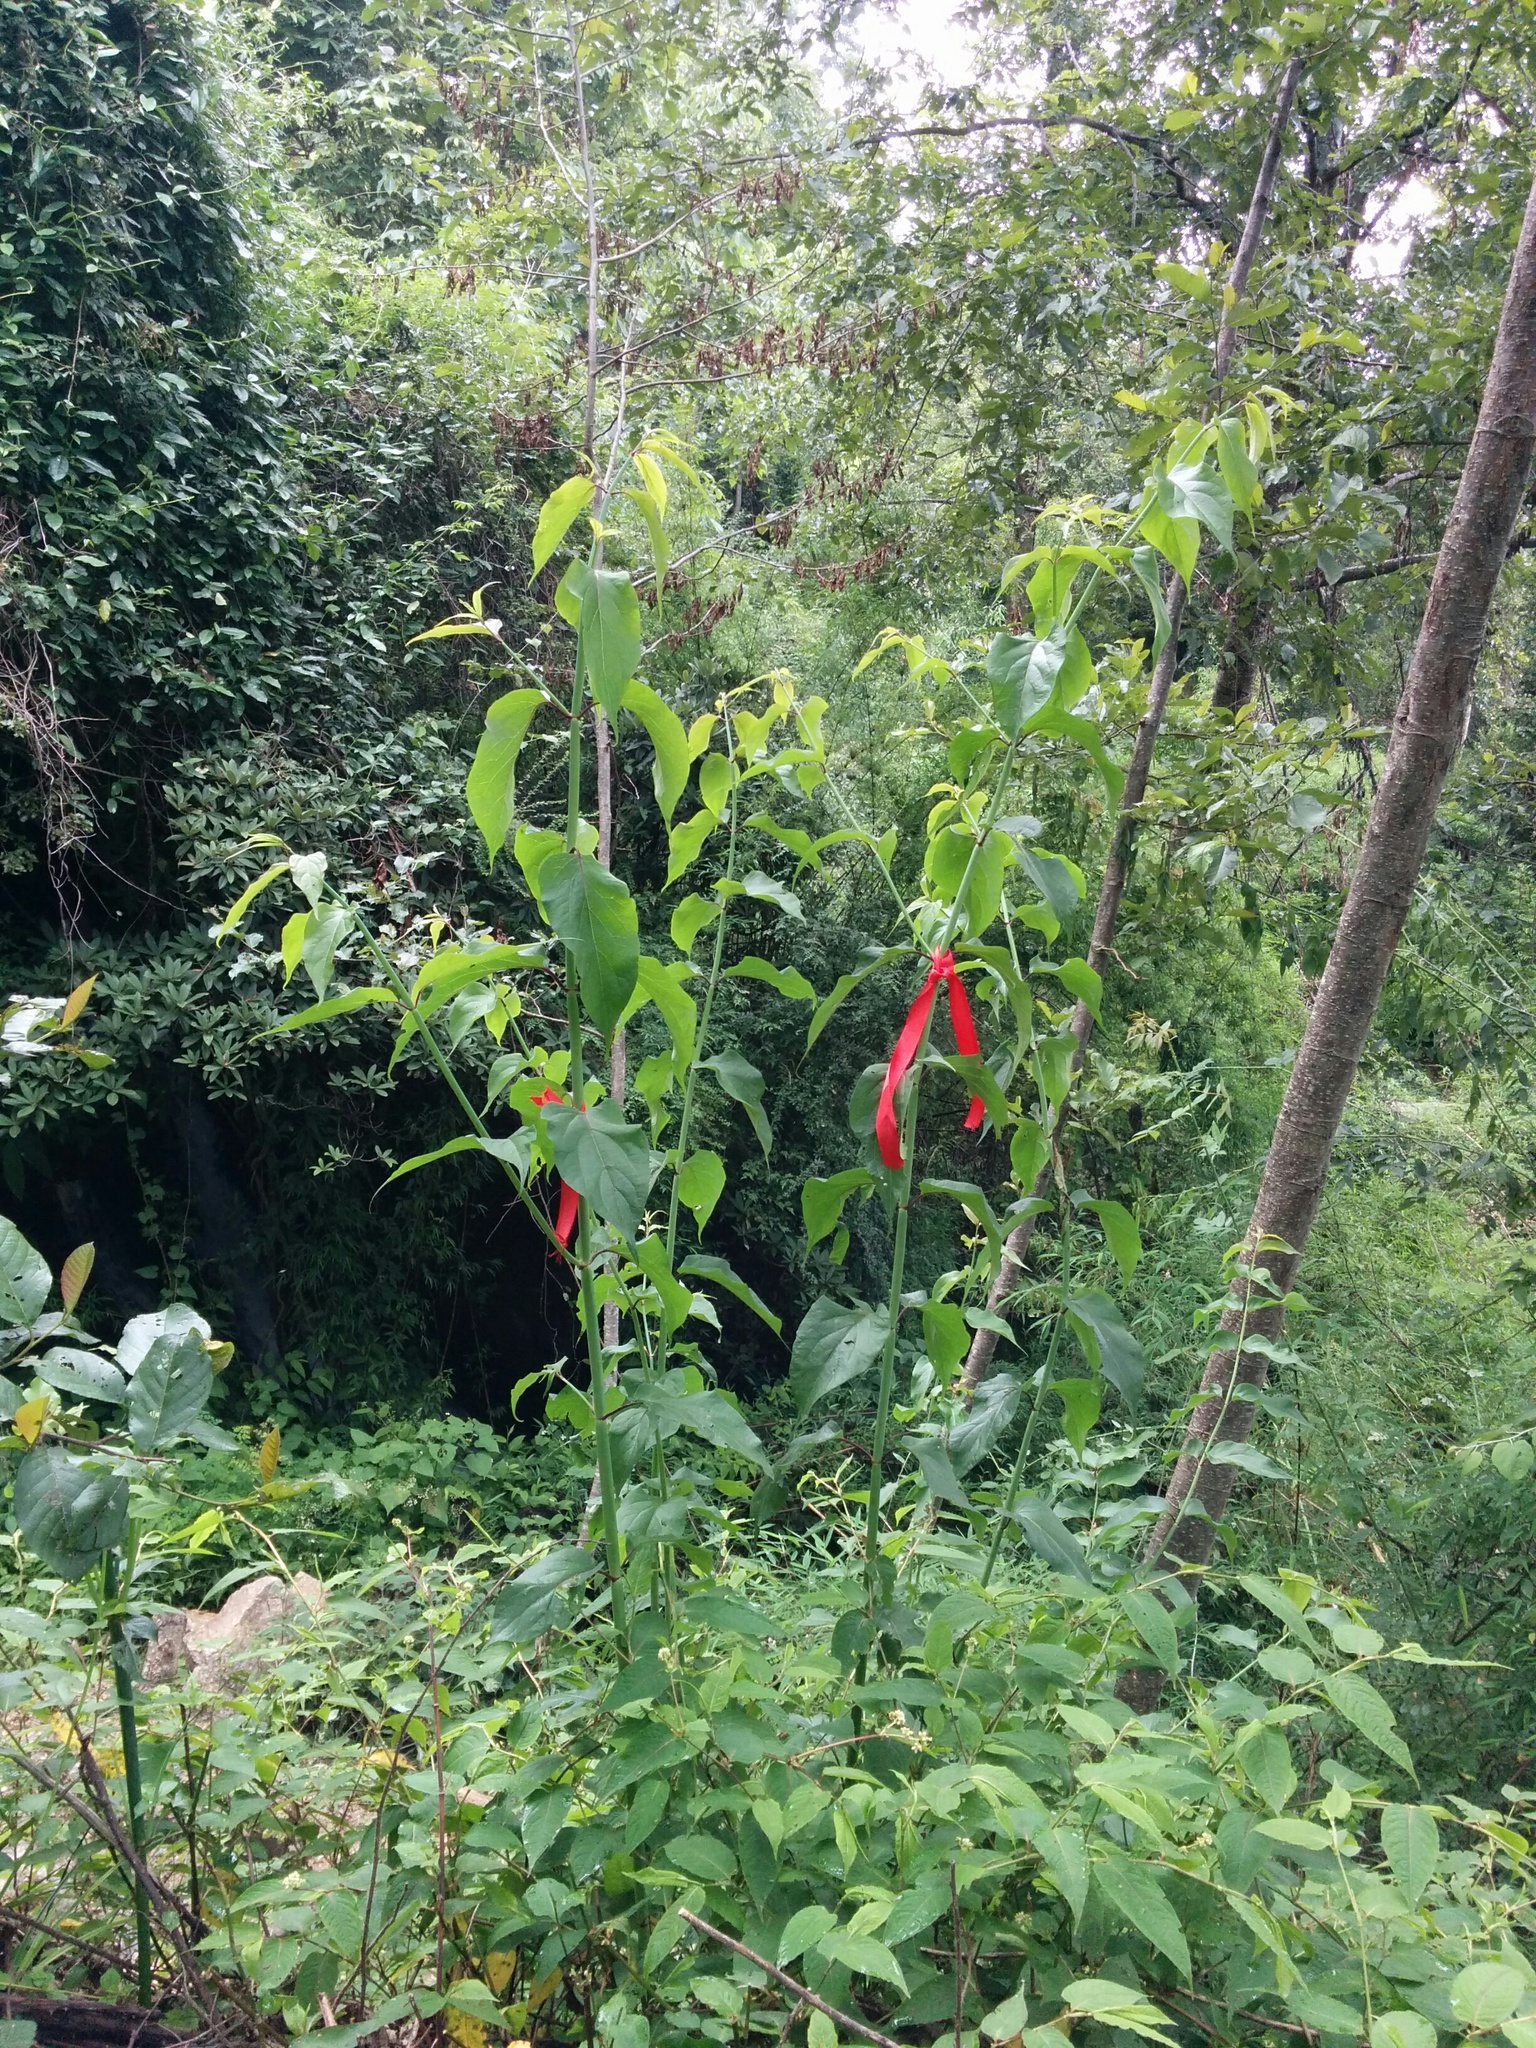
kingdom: Plantae
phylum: Tracheophyta
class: Magnoliopsida
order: Dipsacales
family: Caprifoliaceae
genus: Leycesteria
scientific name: Leycesteria formosa
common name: Himalayan honeysuckle
